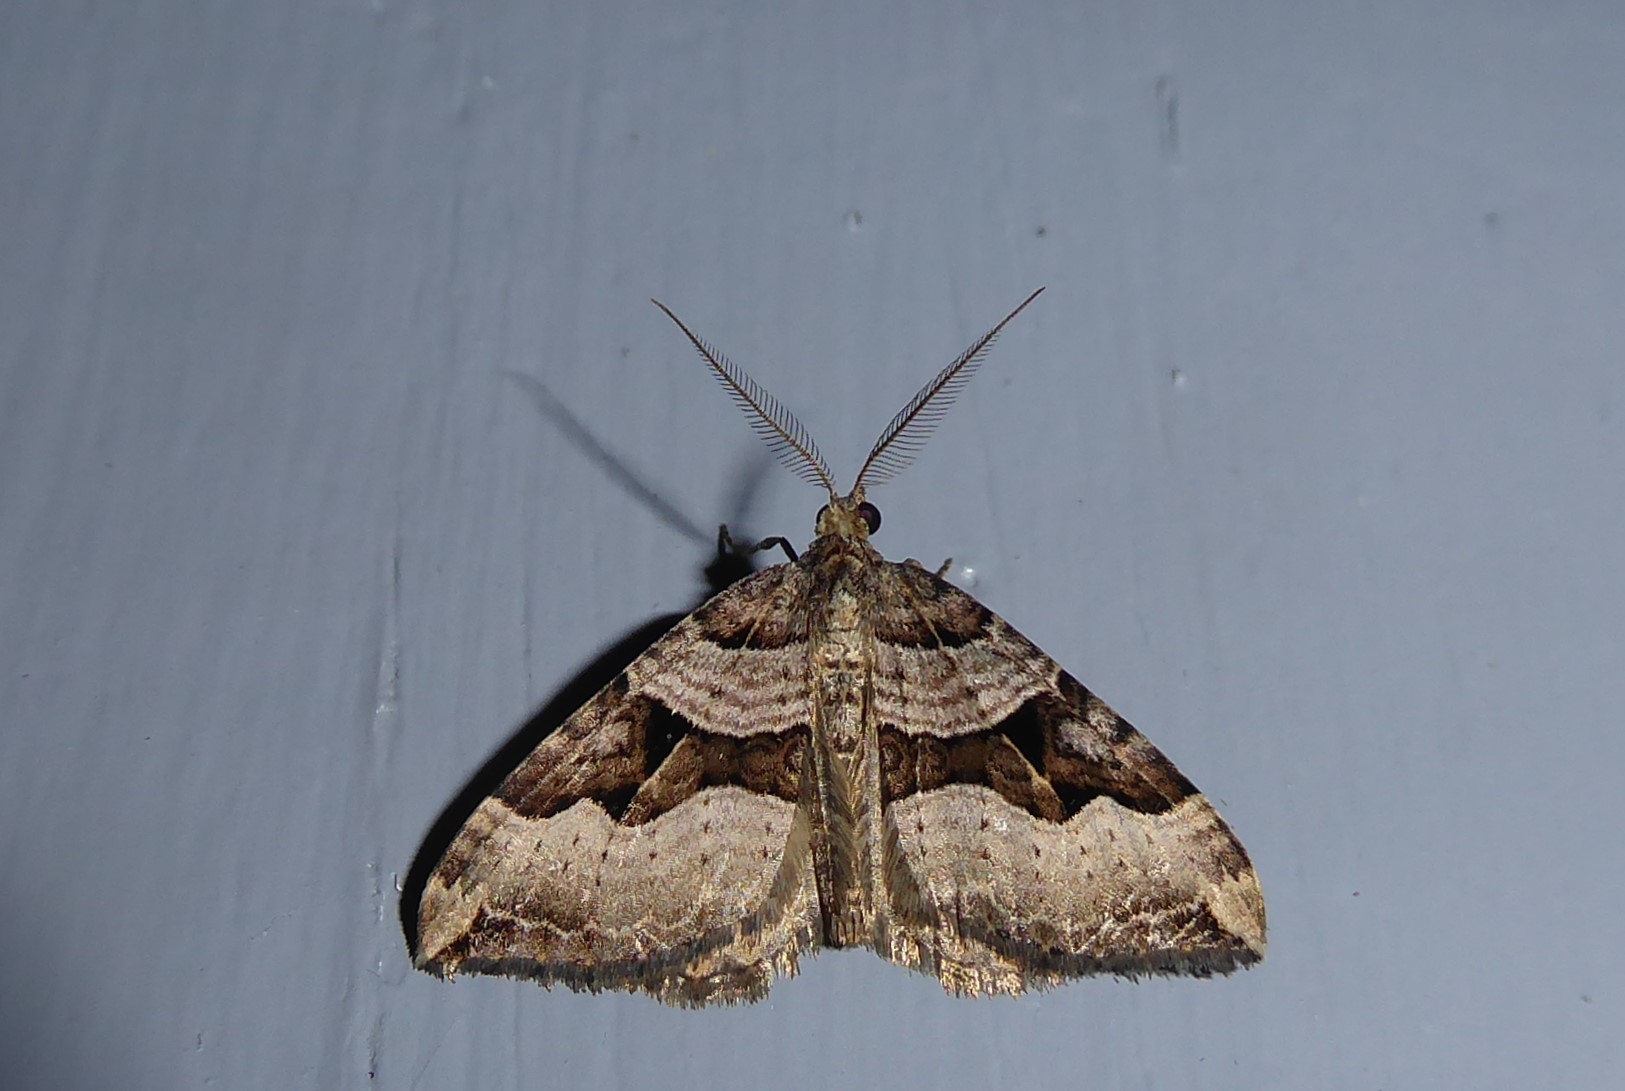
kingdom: Animalia
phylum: Arthropoda
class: Insecta
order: Lepidoptera
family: Geometridae
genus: Xanthorhoe
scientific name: Xanthorhoe semifissata
